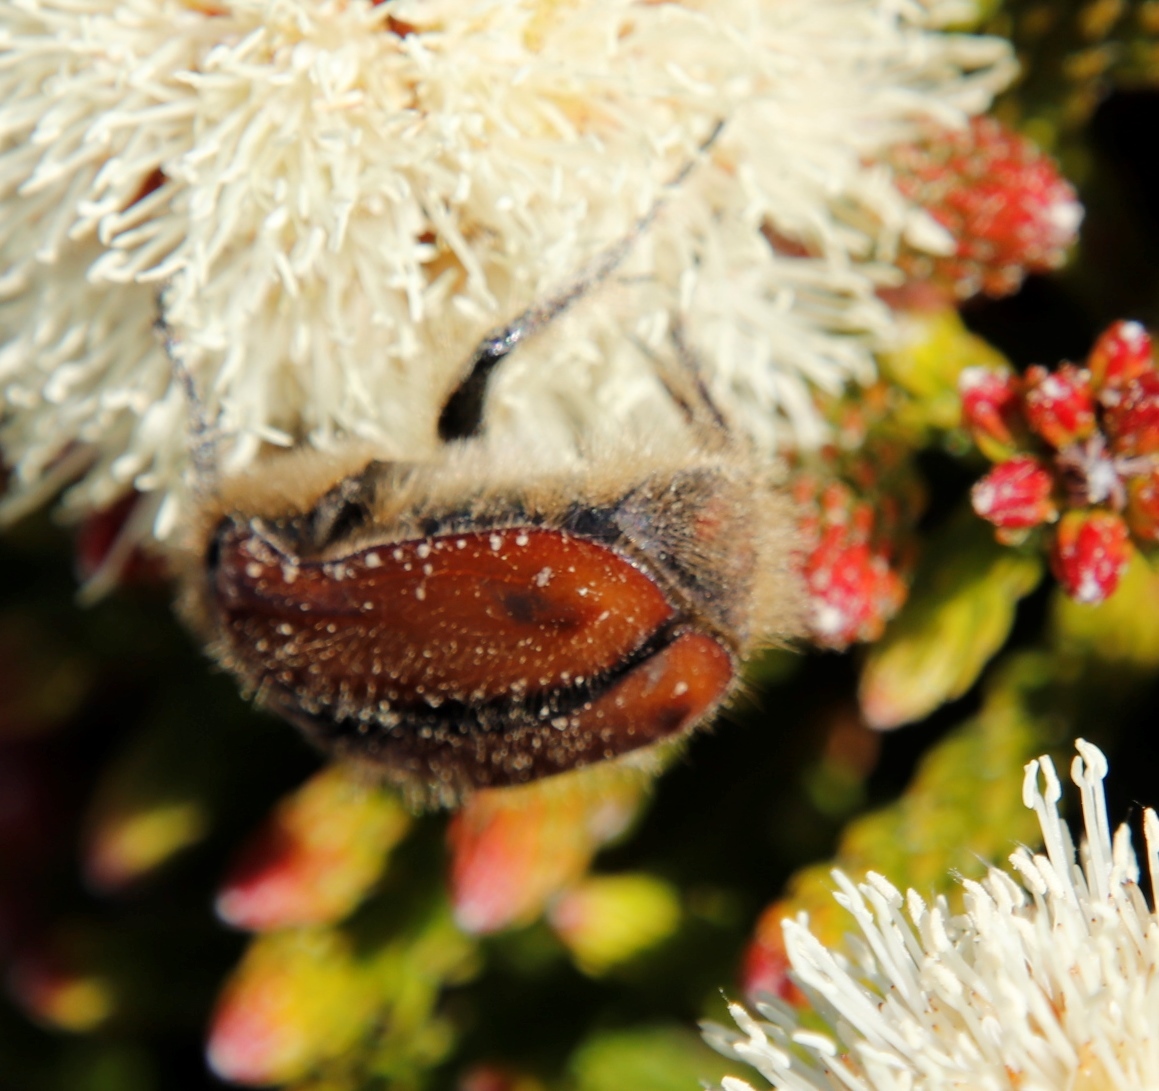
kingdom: Animalia
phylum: Arthropoda
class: Insecta
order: Coleoptera
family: Scarabaeidae
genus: Trichostetha
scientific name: Trichostetha capensis
